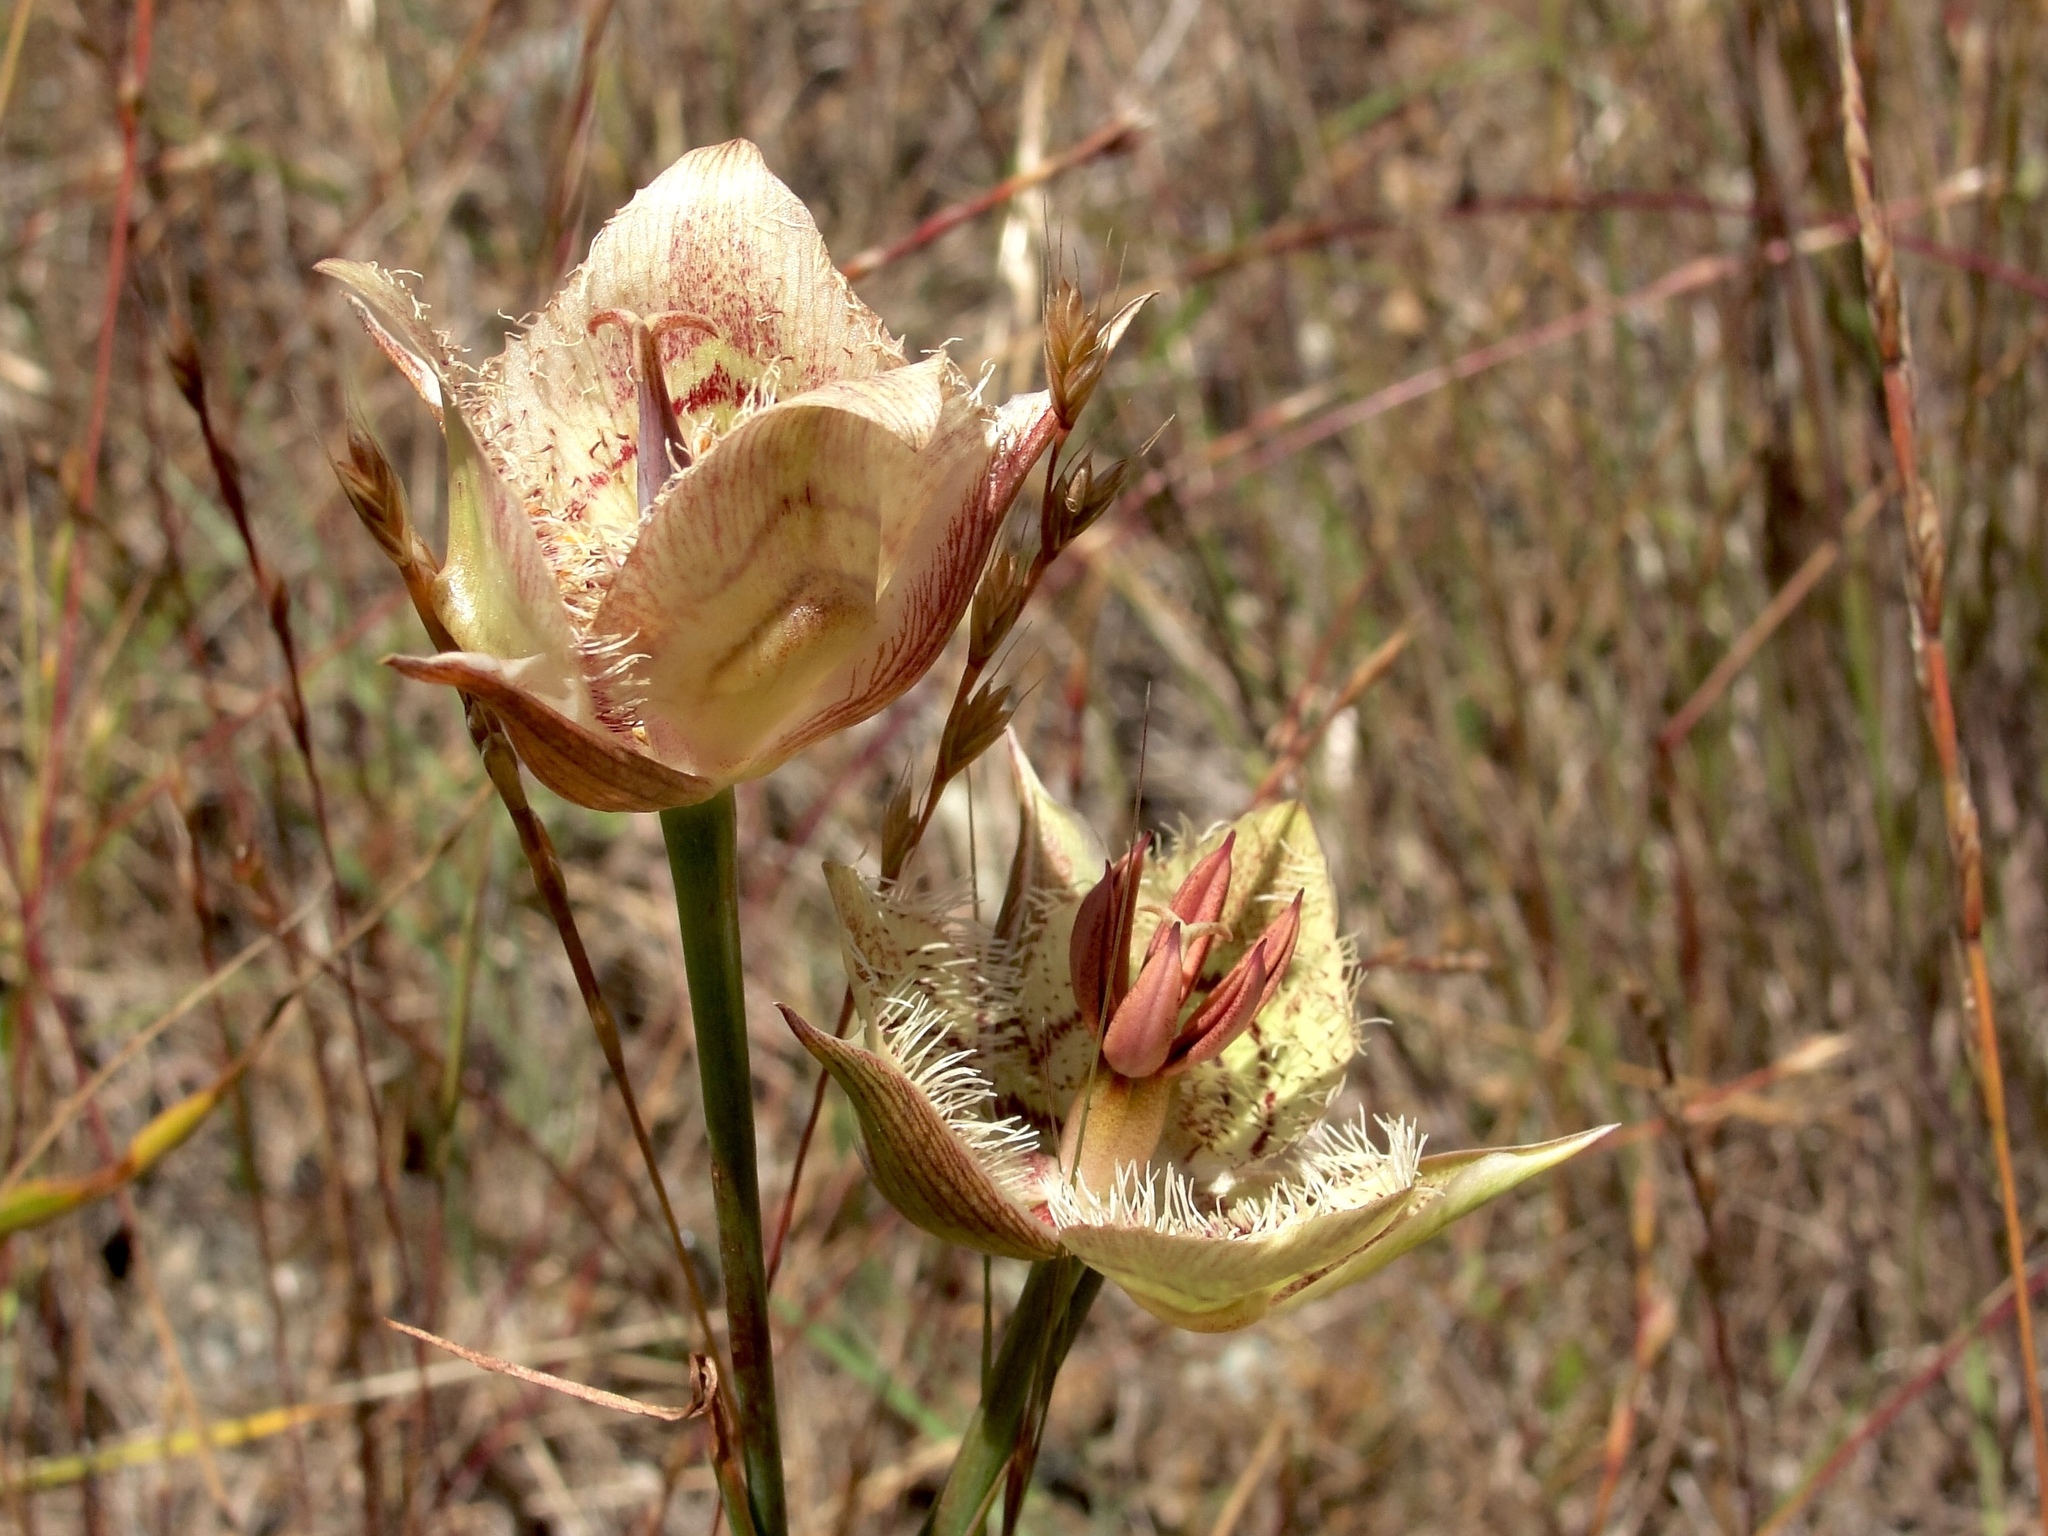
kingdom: Plantae
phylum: Tracheophyta
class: Liliopsida
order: Liliales
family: Liliaceae
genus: Calochortus
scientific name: Calochortus tiburonensis
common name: Tiburon mariposa-lily
